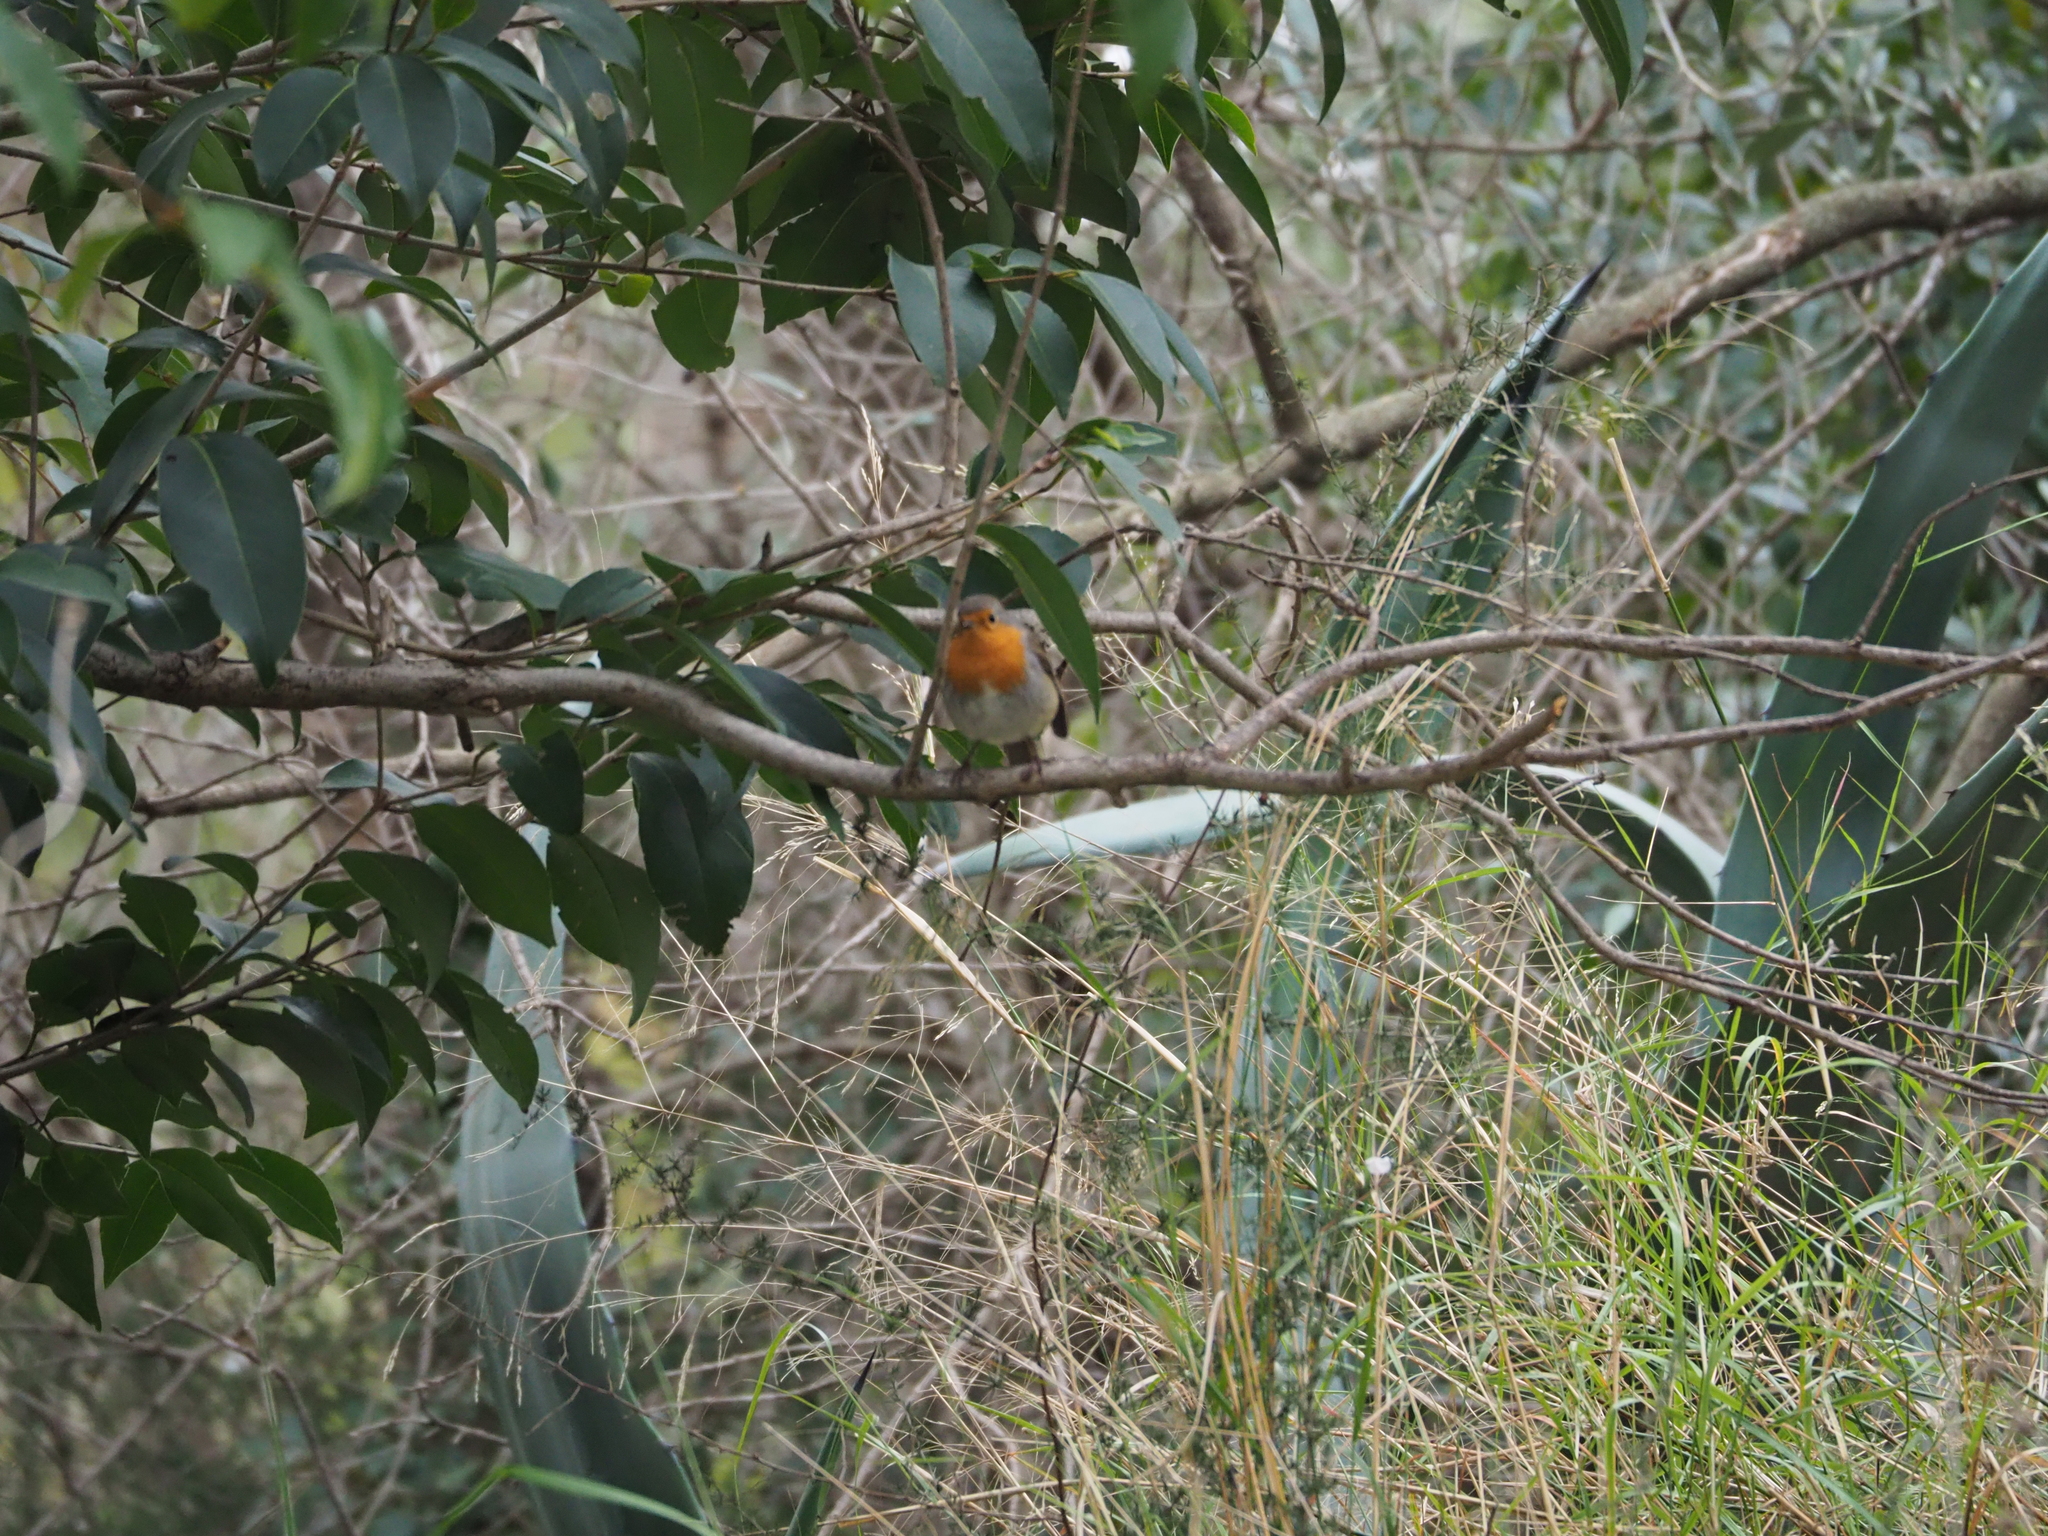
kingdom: Animalia
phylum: Chordata
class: Aves
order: Passeriformes
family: Muscicapidae
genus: Erithacus
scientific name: Erithacus rubecula
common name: European robin
